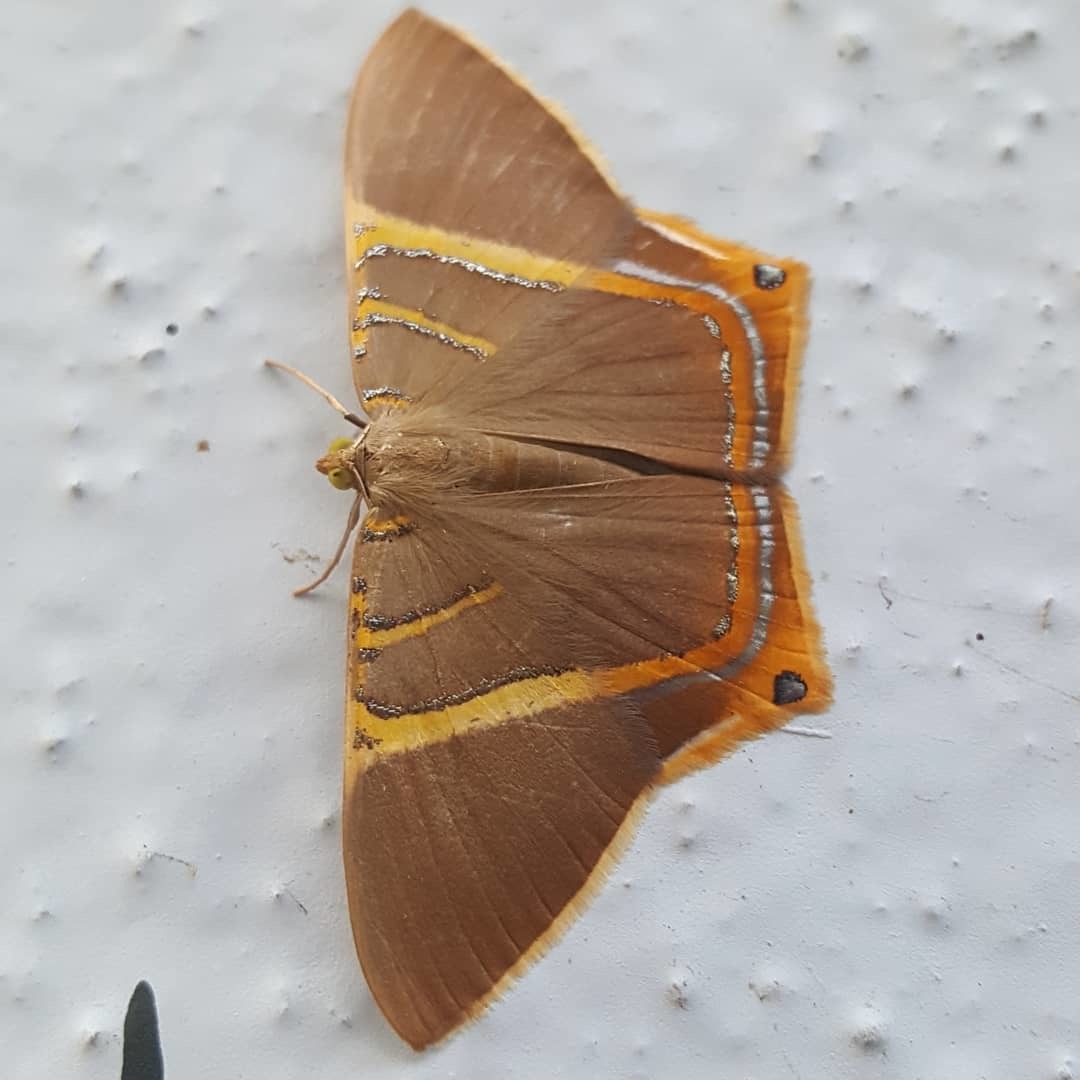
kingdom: Animalia
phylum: Arthropoda
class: Insecta
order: Lepidoptera
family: Geometridae
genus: Phrygionis
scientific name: Phrygionis polita
